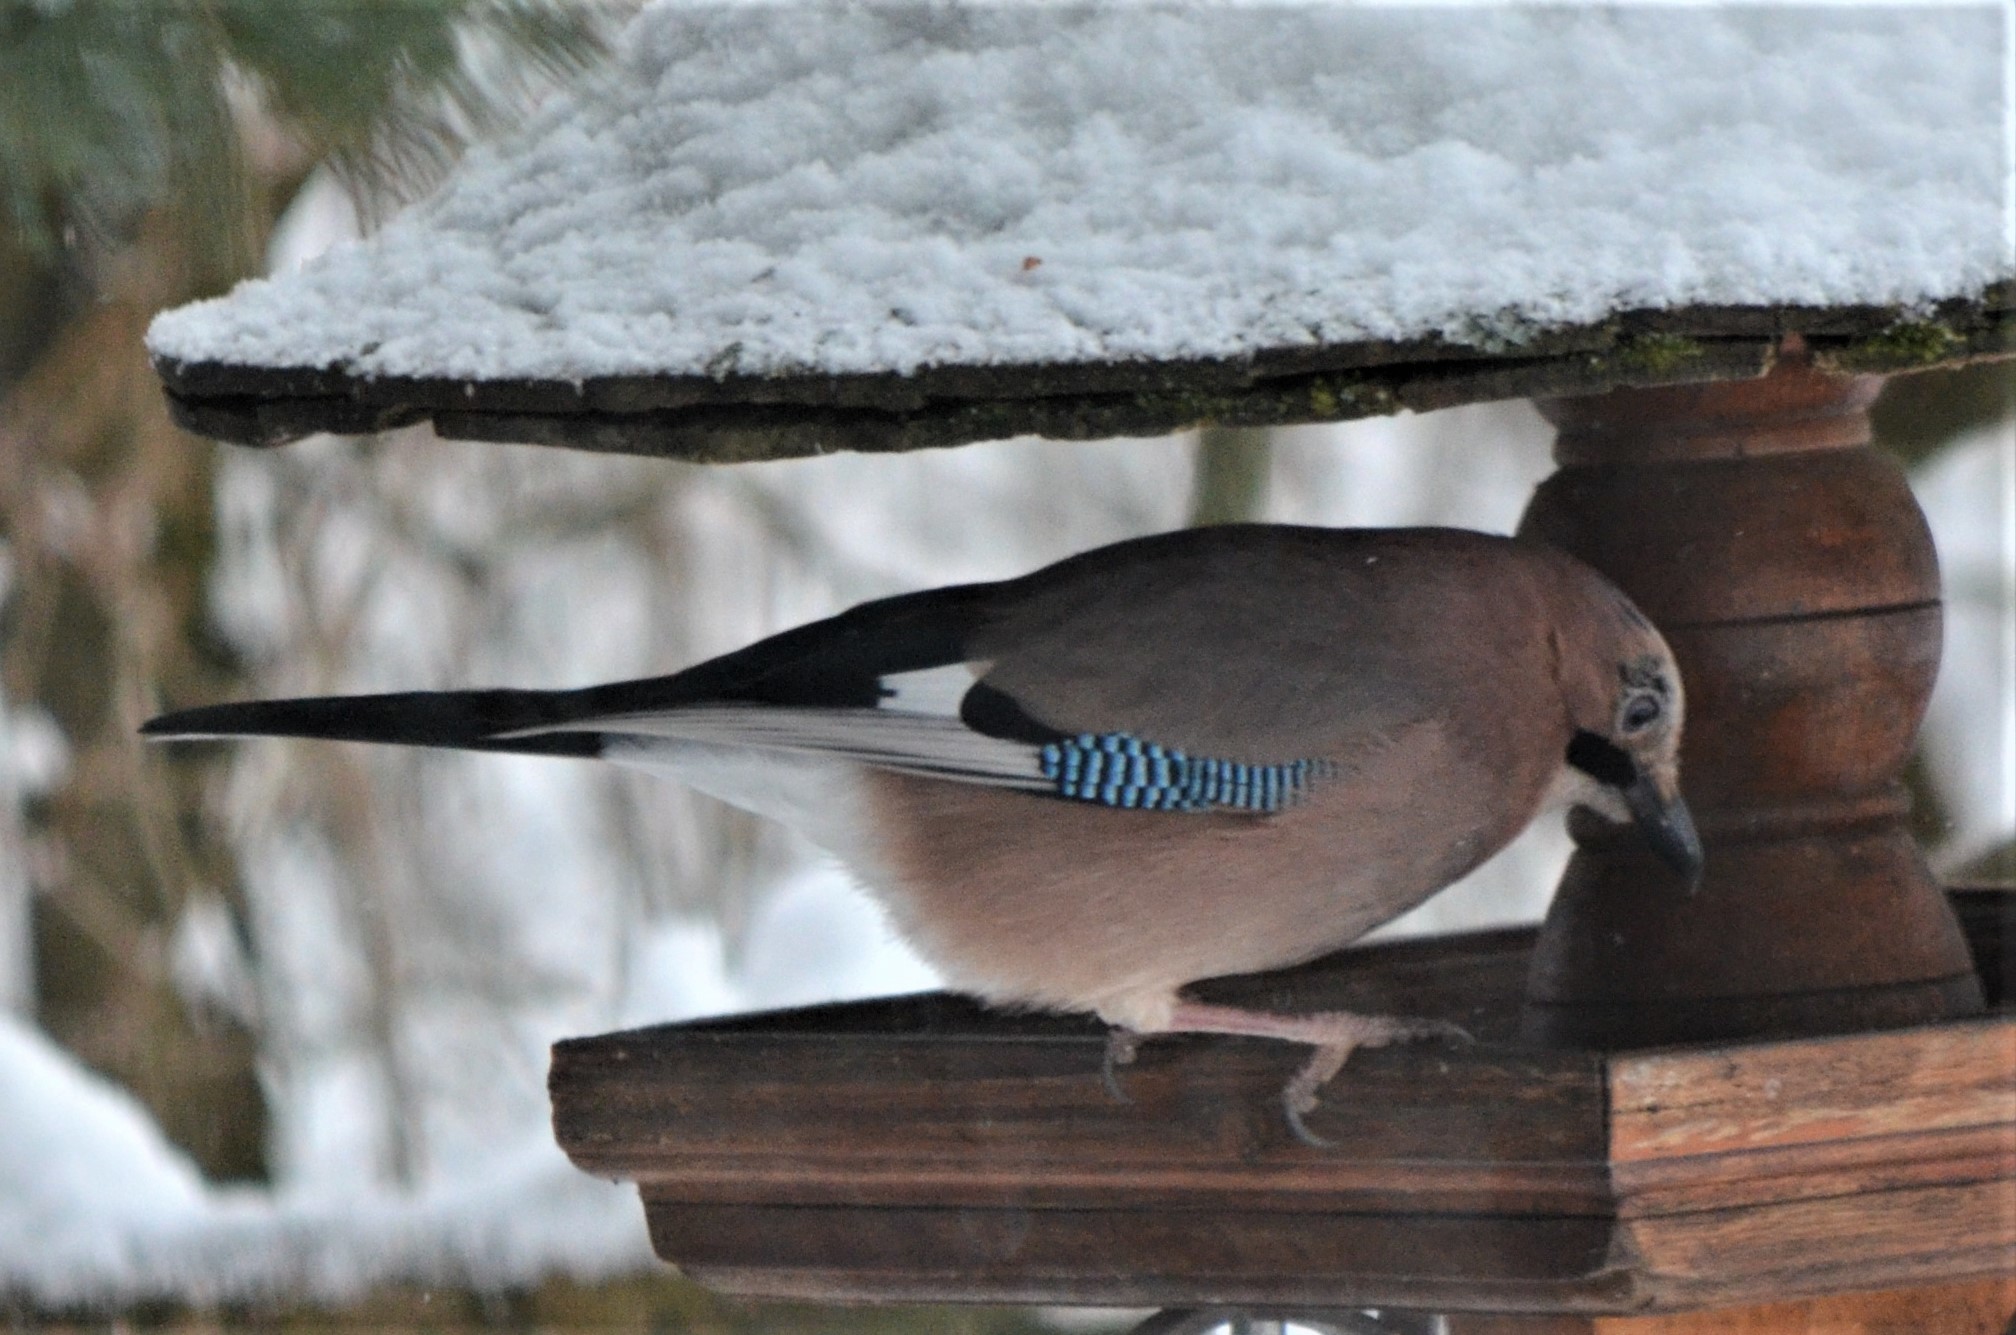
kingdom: Animalia
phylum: Chordata
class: Aves
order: Passeriformes
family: Corvidae
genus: Garrulus
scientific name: Garrulus glandarius
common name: Eurasian jay
